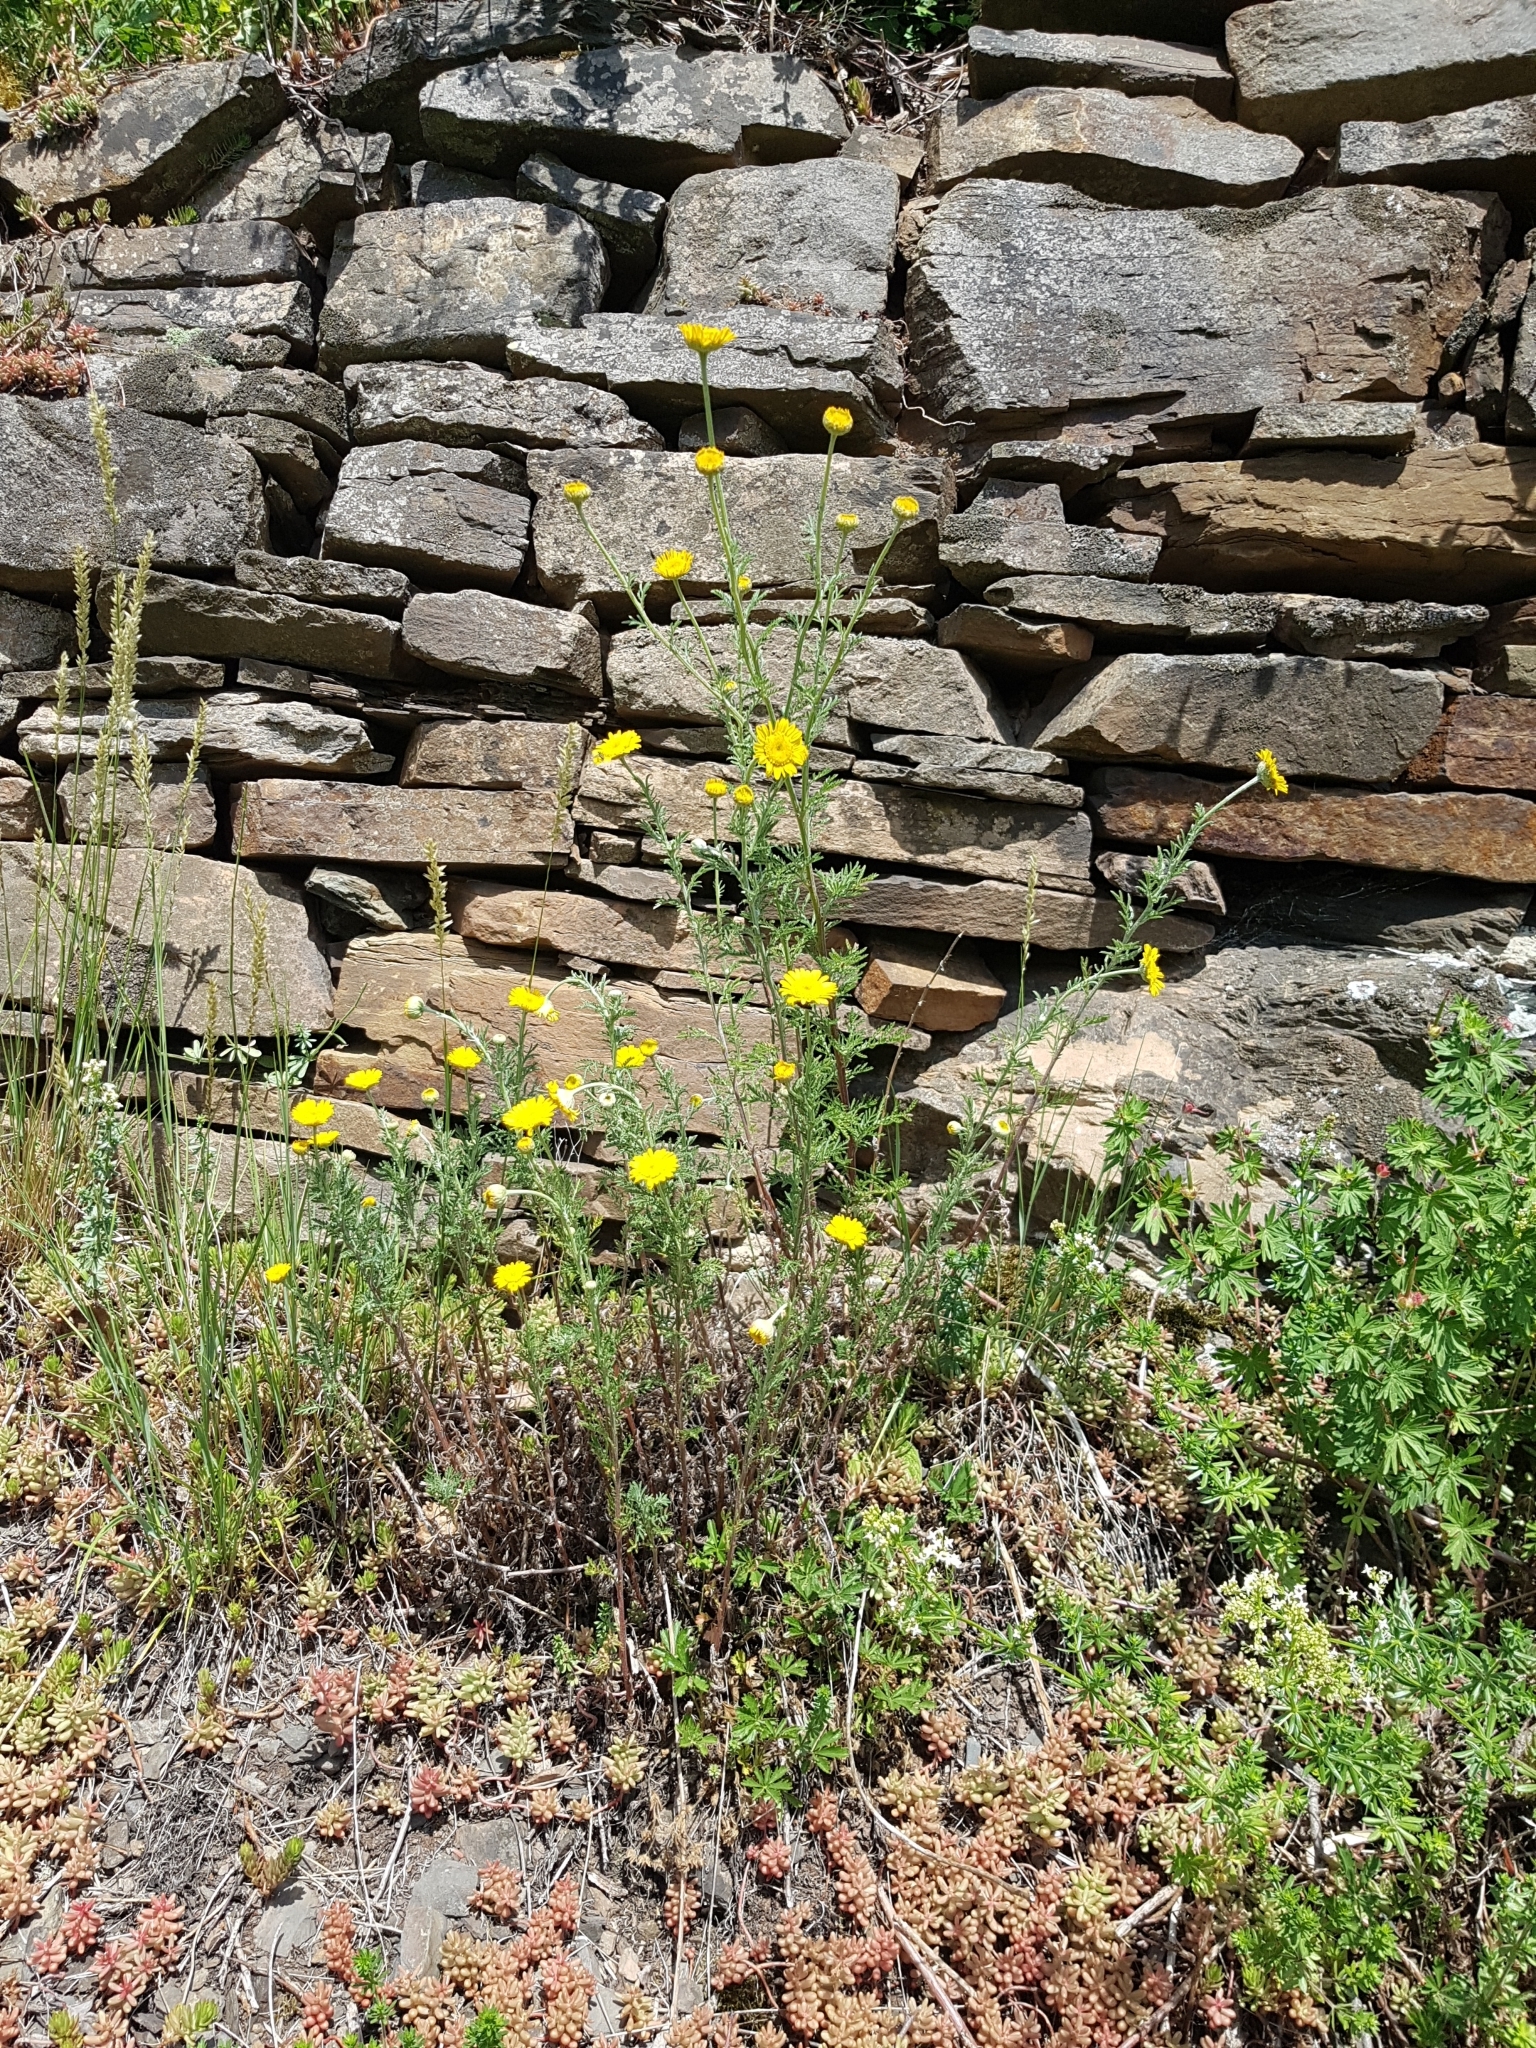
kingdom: Plantae
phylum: Tracheophyta
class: Magnoliopsida
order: Asterales
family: Asteraceae
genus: Cota
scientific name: Cota tinctoria
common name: Golden chamomile
